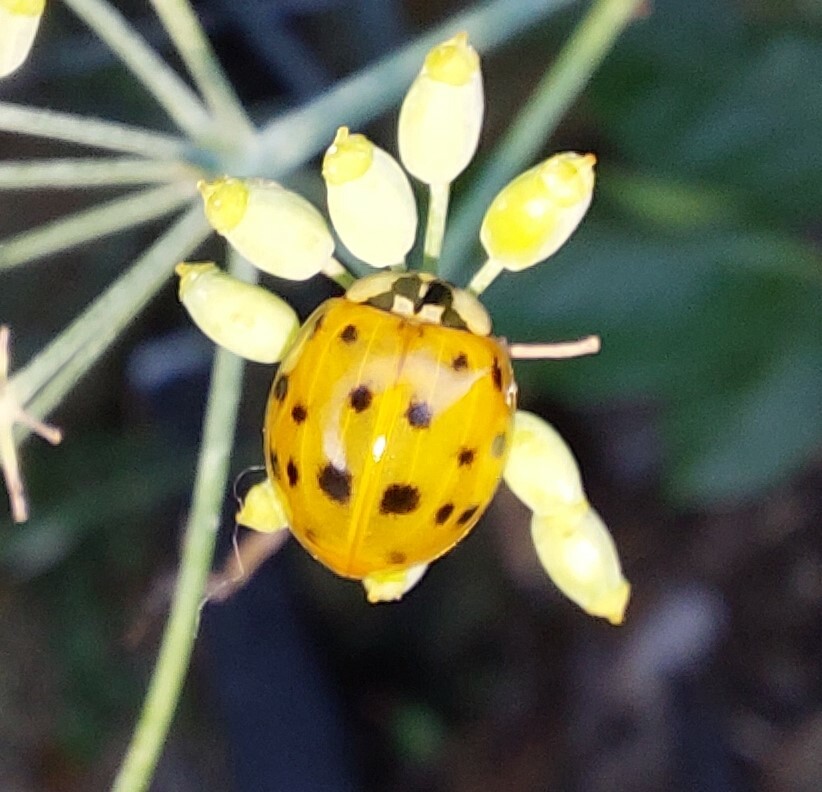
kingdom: Animalia
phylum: Arthropoda
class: Insecta
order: Coleoptera
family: Coccinellidae
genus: Harmonia
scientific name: Harmonia axyridis
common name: Harlequin ladybird
